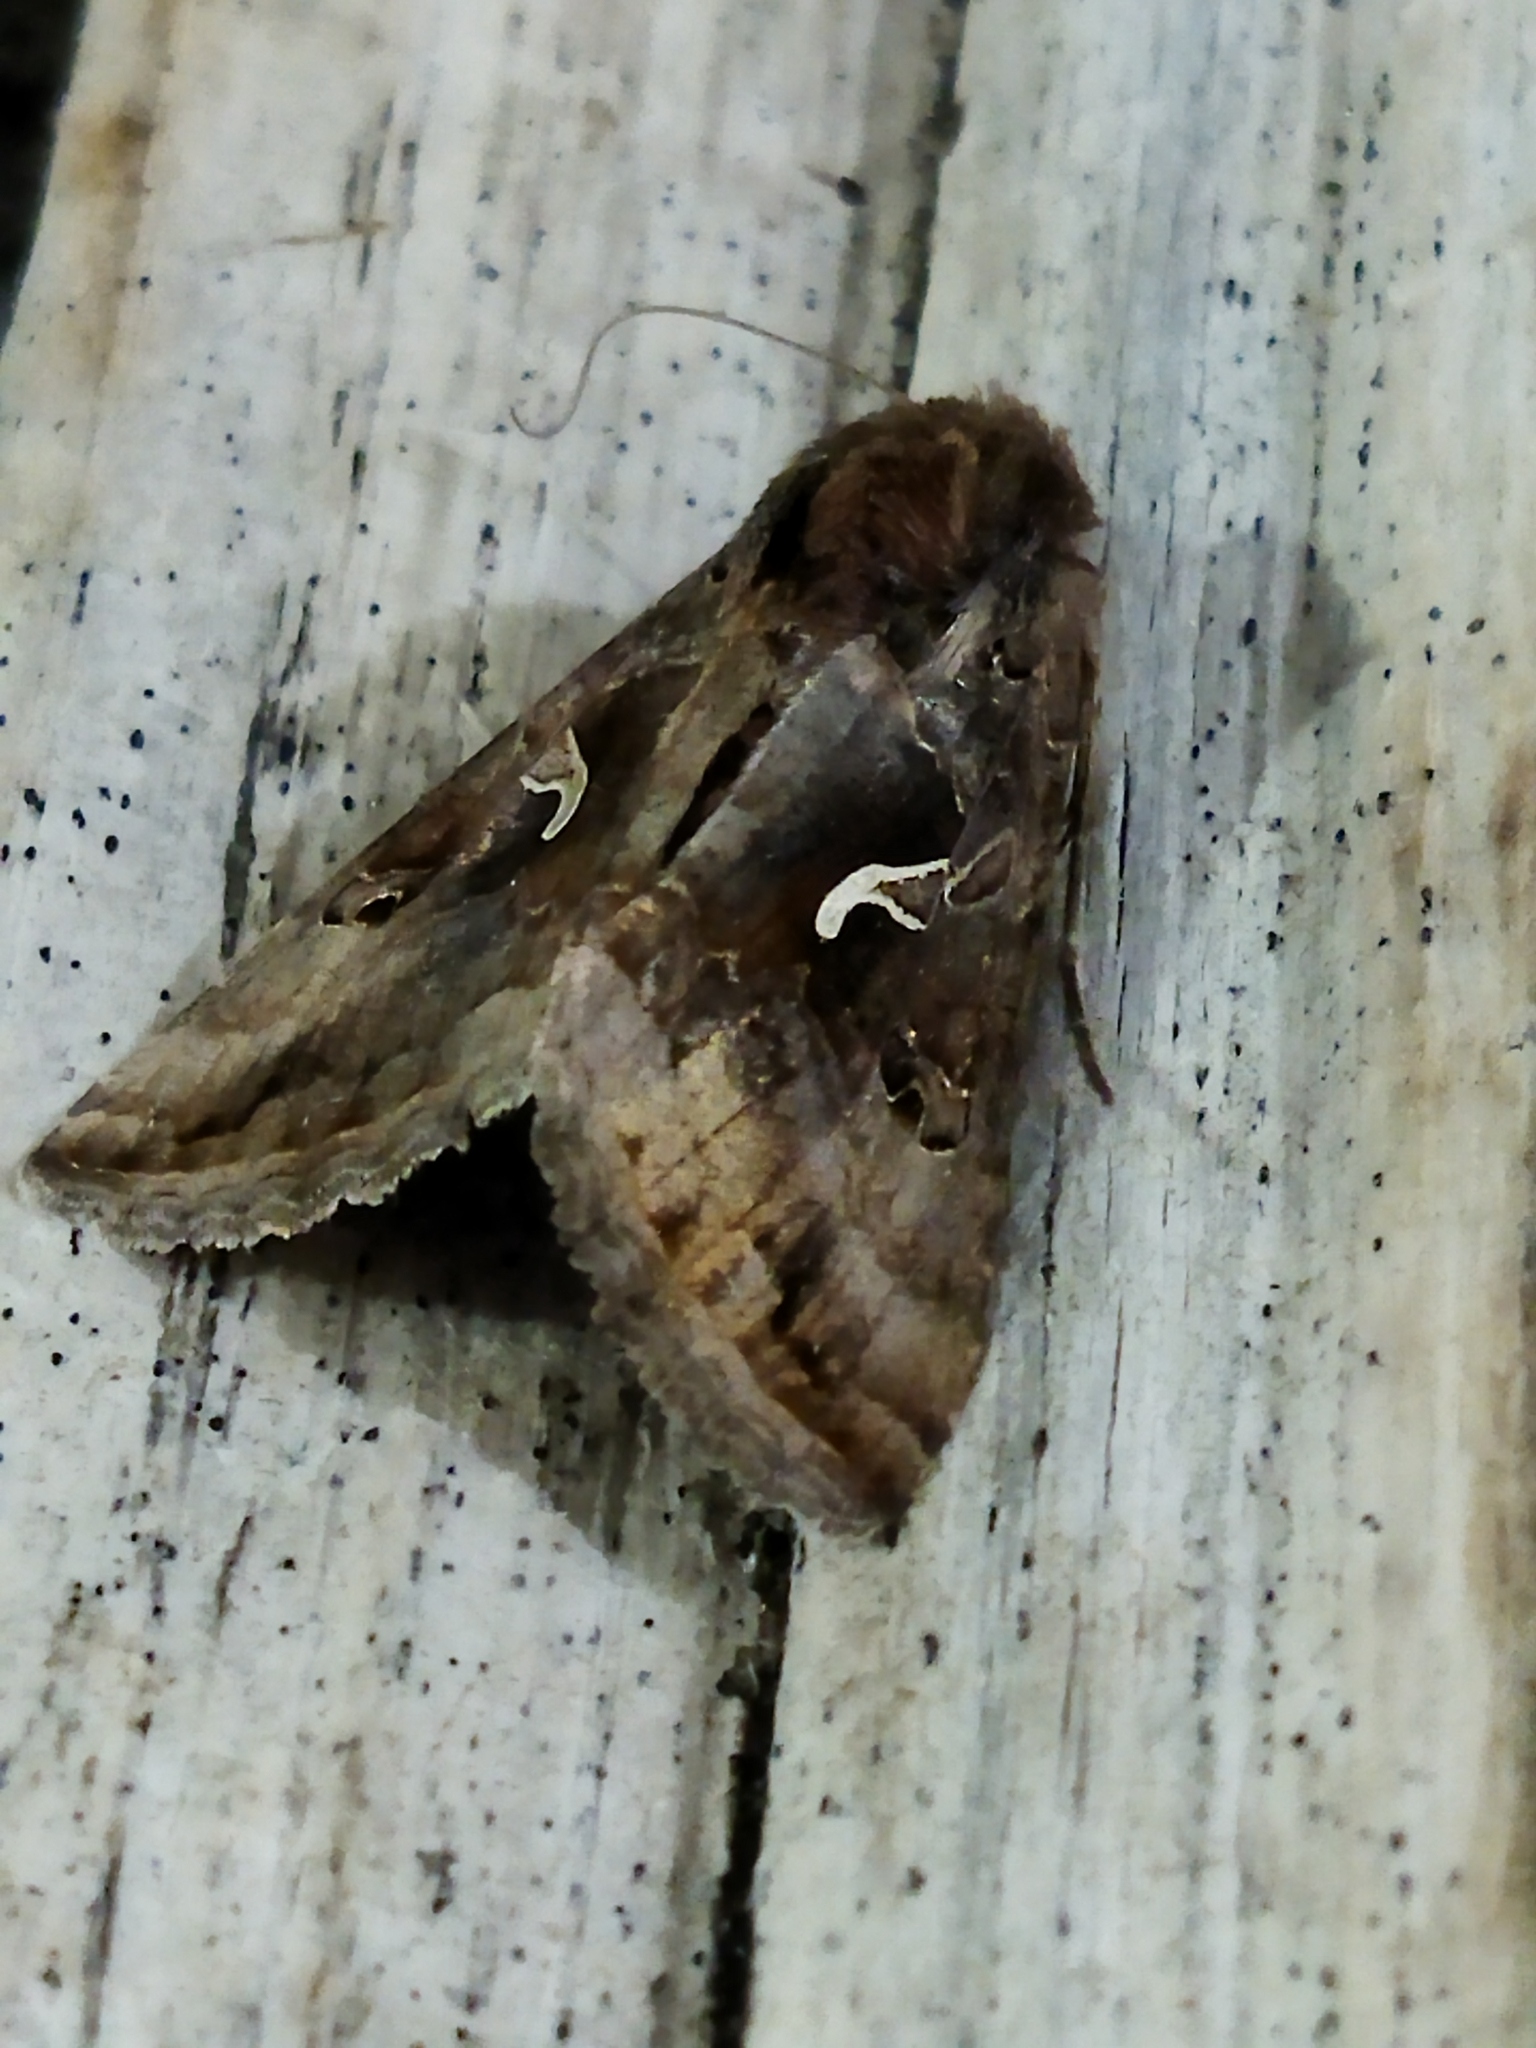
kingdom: Animalia
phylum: Arthropoda
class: Insecta
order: Lepidoptera
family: Noctuidae
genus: Autographa
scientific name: Autographa gamma
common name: Silver y
